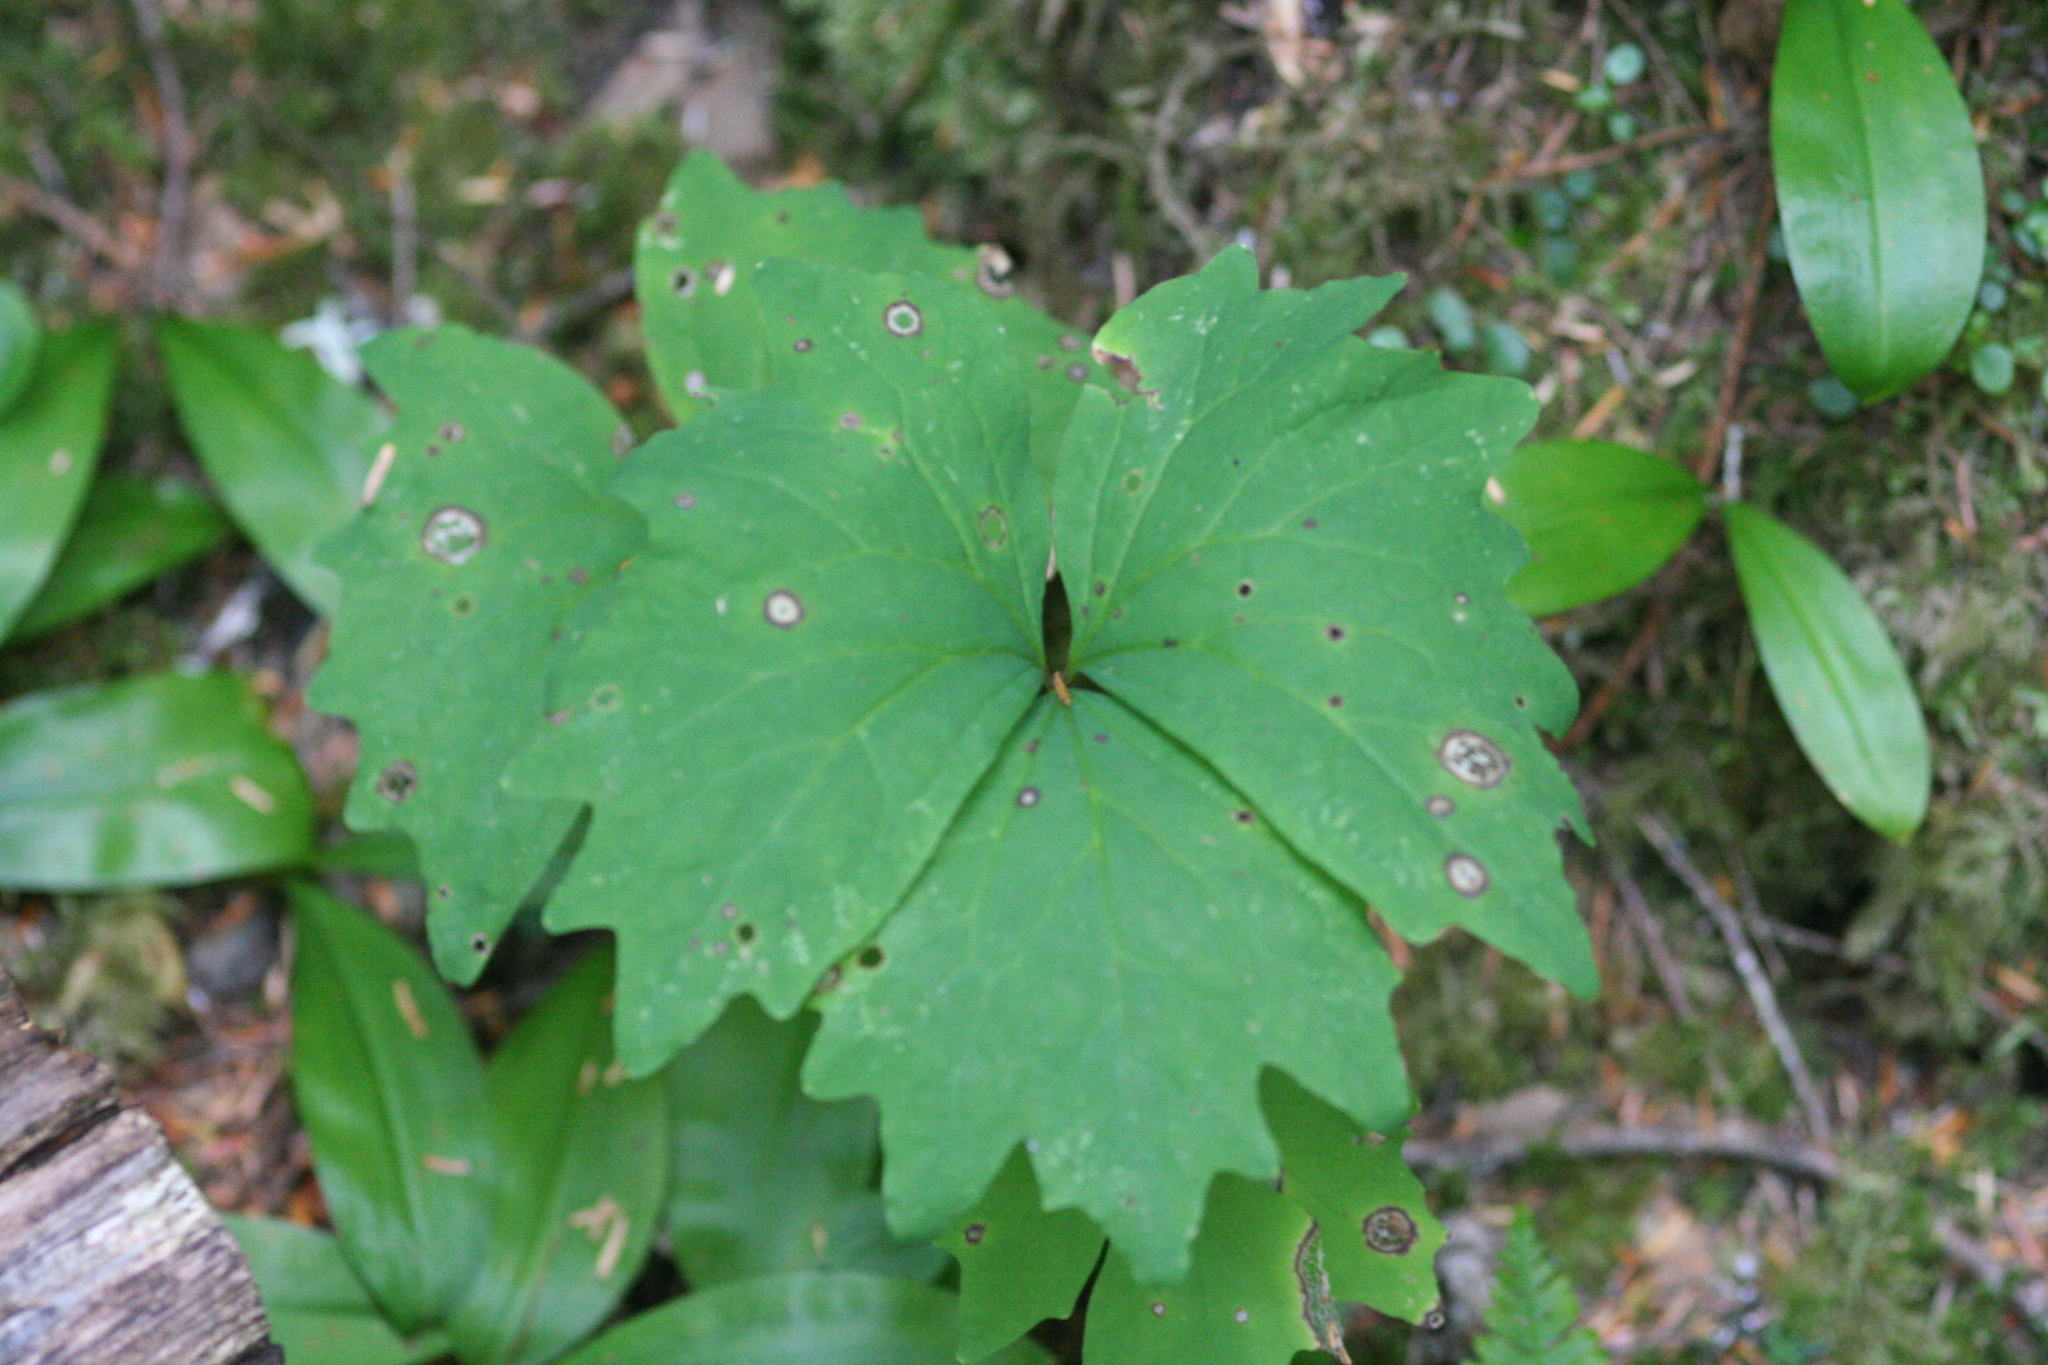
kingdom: Plantae
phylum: Tracheophyta
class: Magnoliopsida
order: Ranunculales
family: Berberidaceae
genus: Achlys
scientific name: Achlys triphylla
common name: Vanilla-leaf
